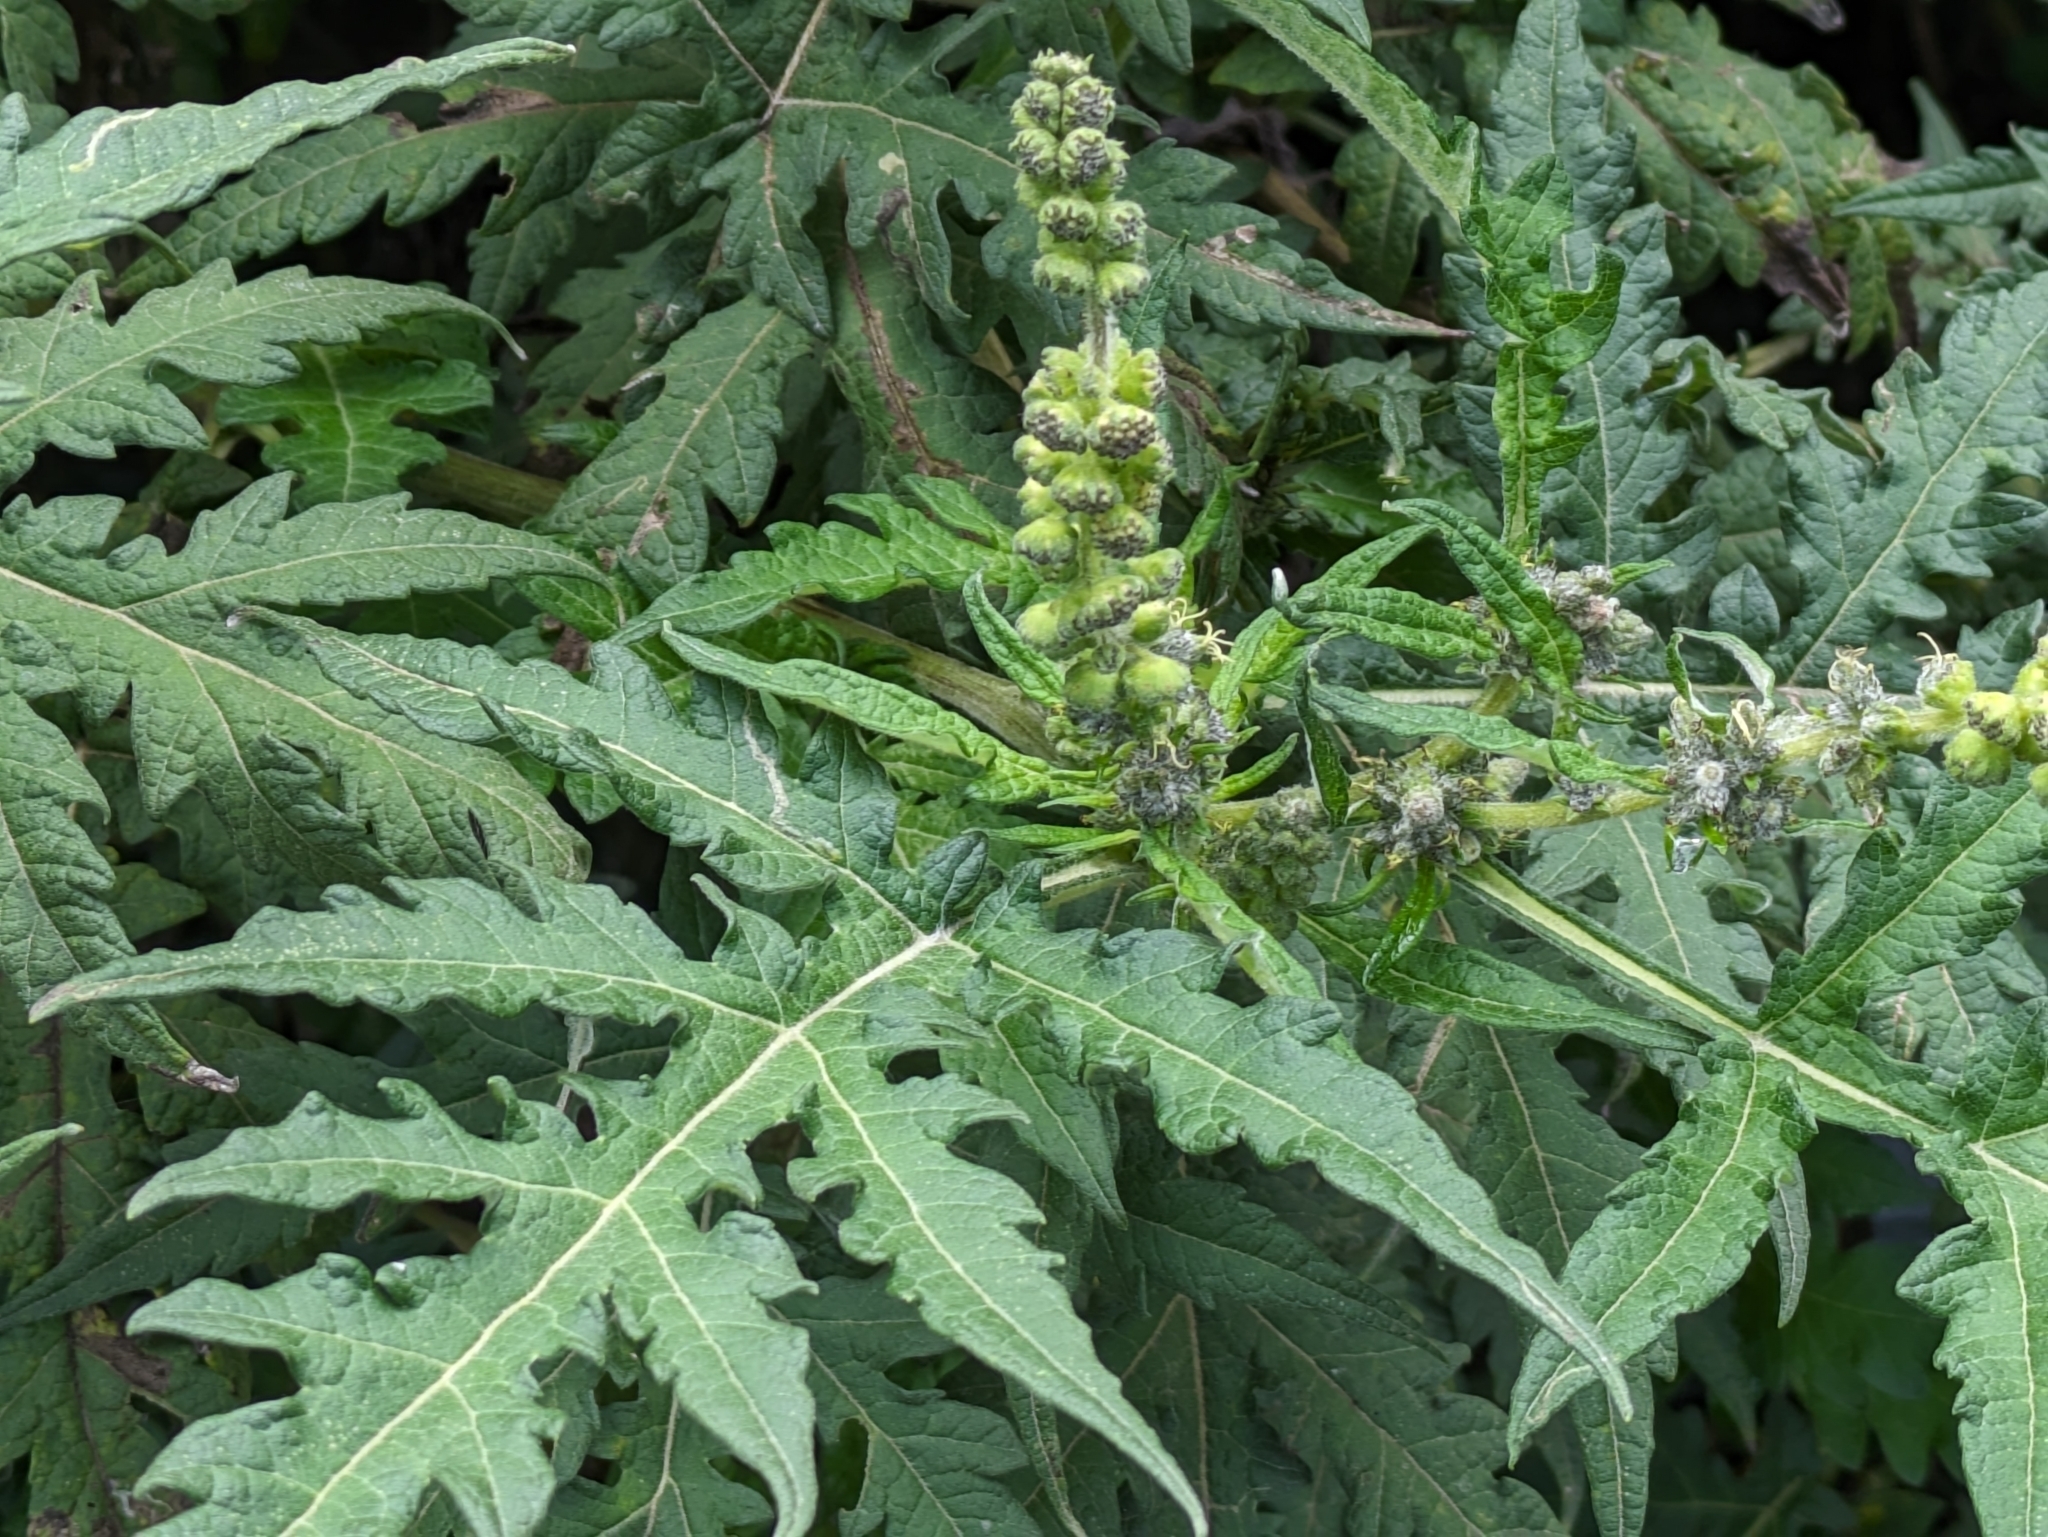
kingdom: Plantae
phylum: Tracheophyta
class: Magnoliopsida
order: Asterales
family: Asteraceae
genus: Ambrosia
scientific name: Ambrosia arborescens
